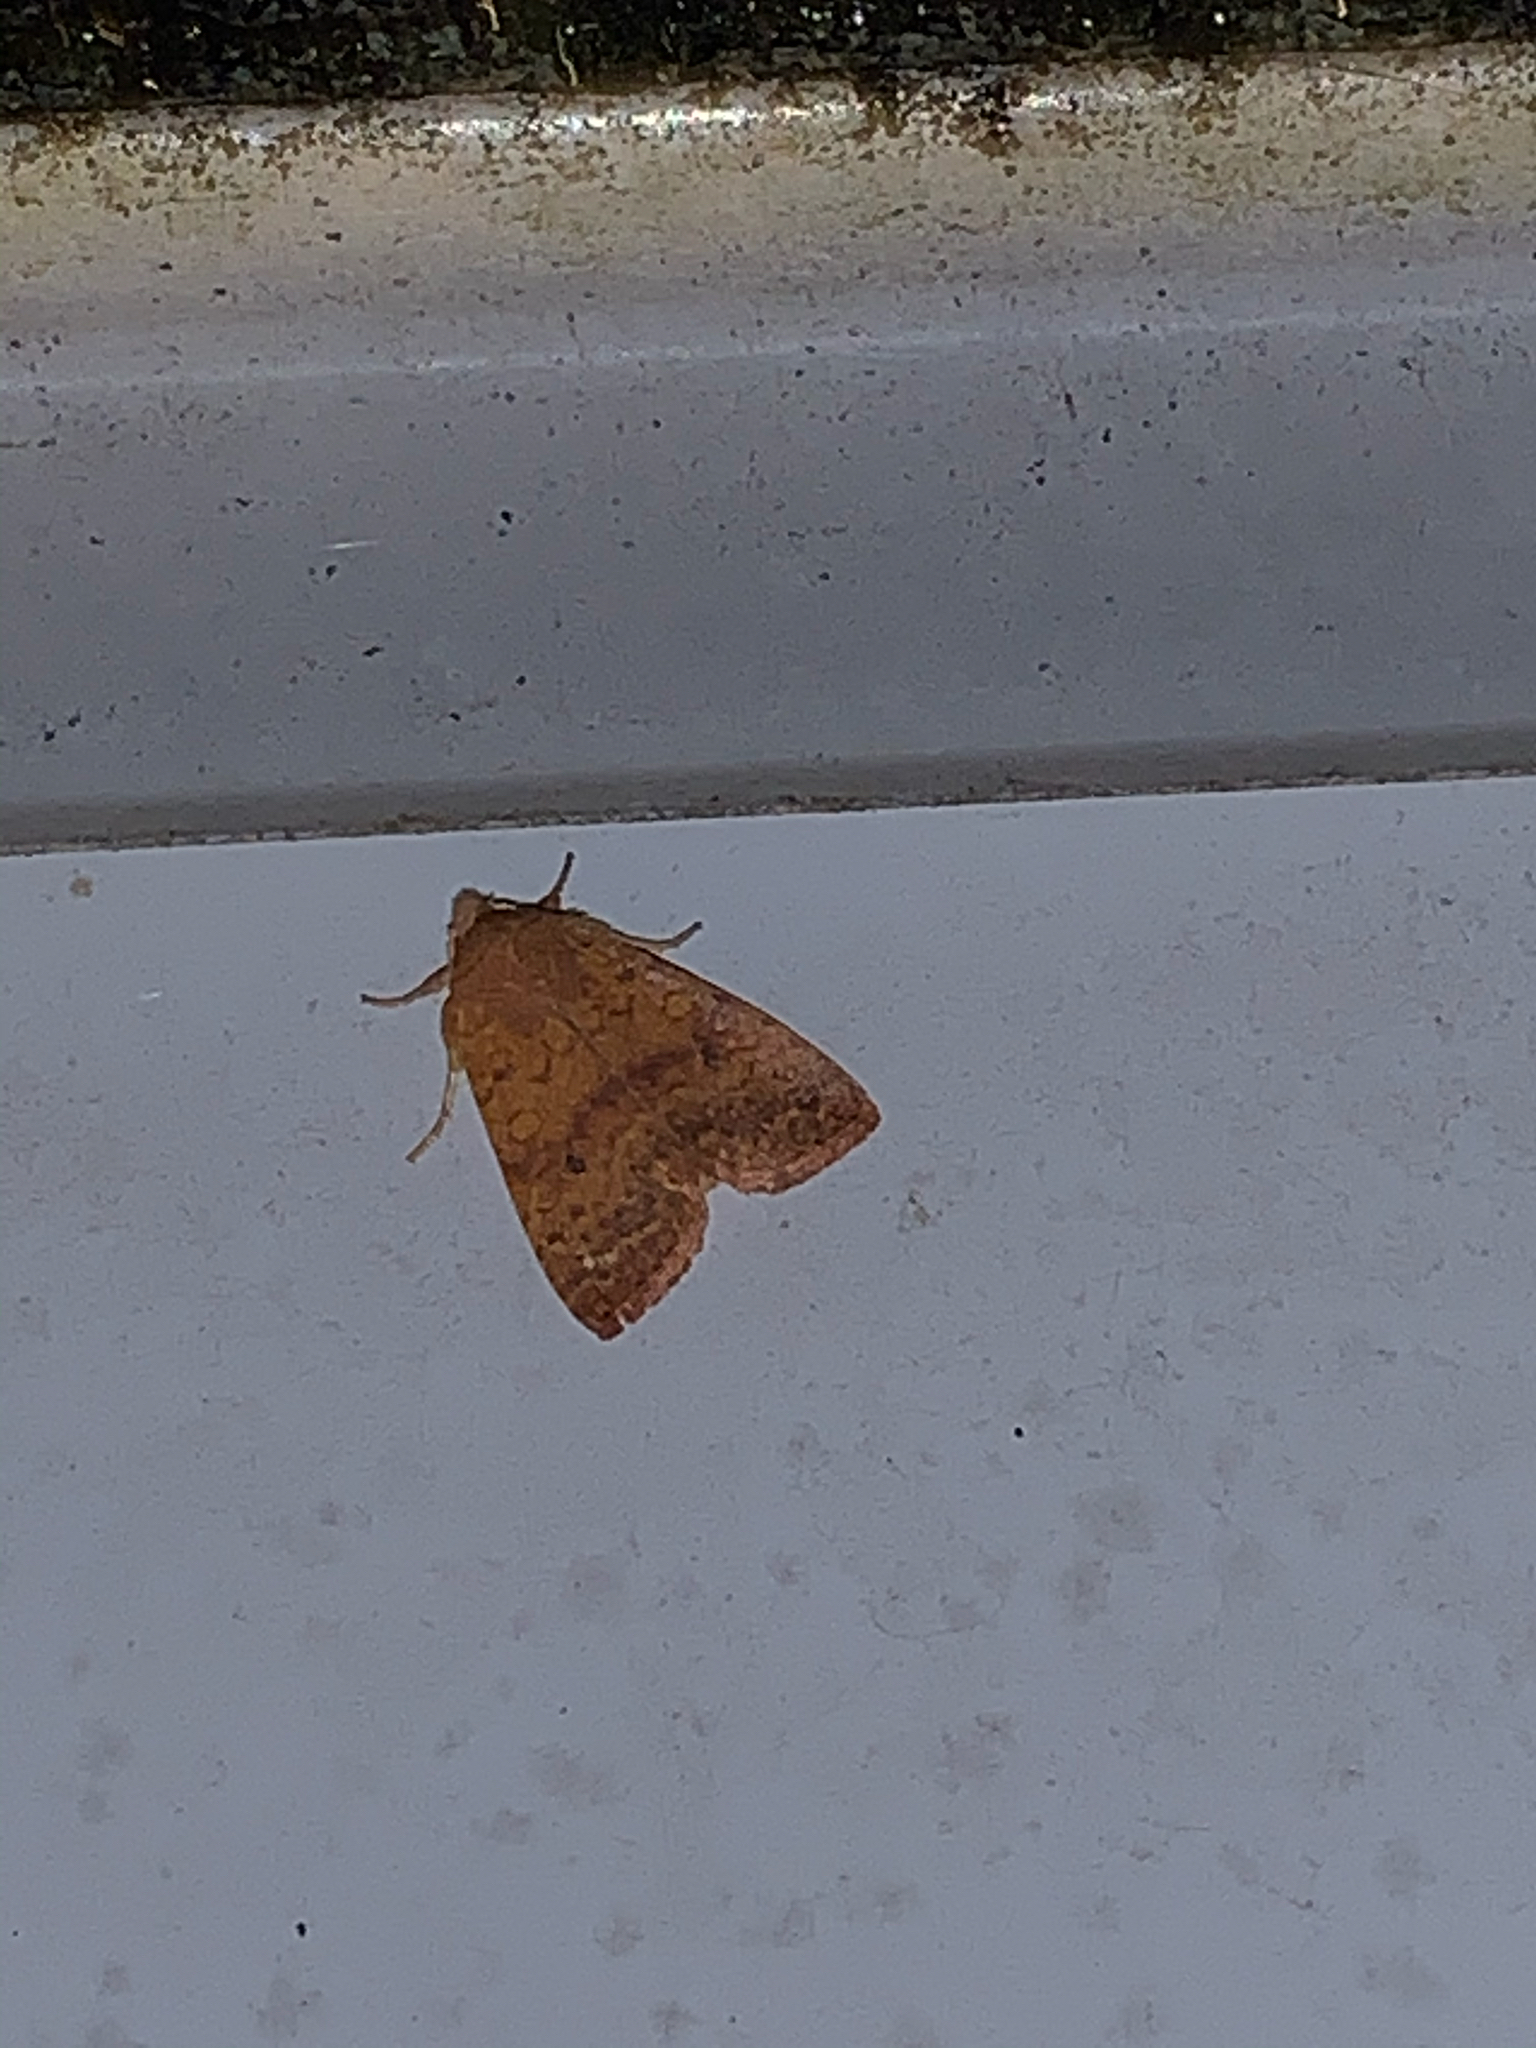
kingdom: Animalia
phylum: Arthropoda
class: Insecta
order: Lepidoptera
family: Noctuidae
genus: Agrochola
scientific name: Agrochola bicolorago
